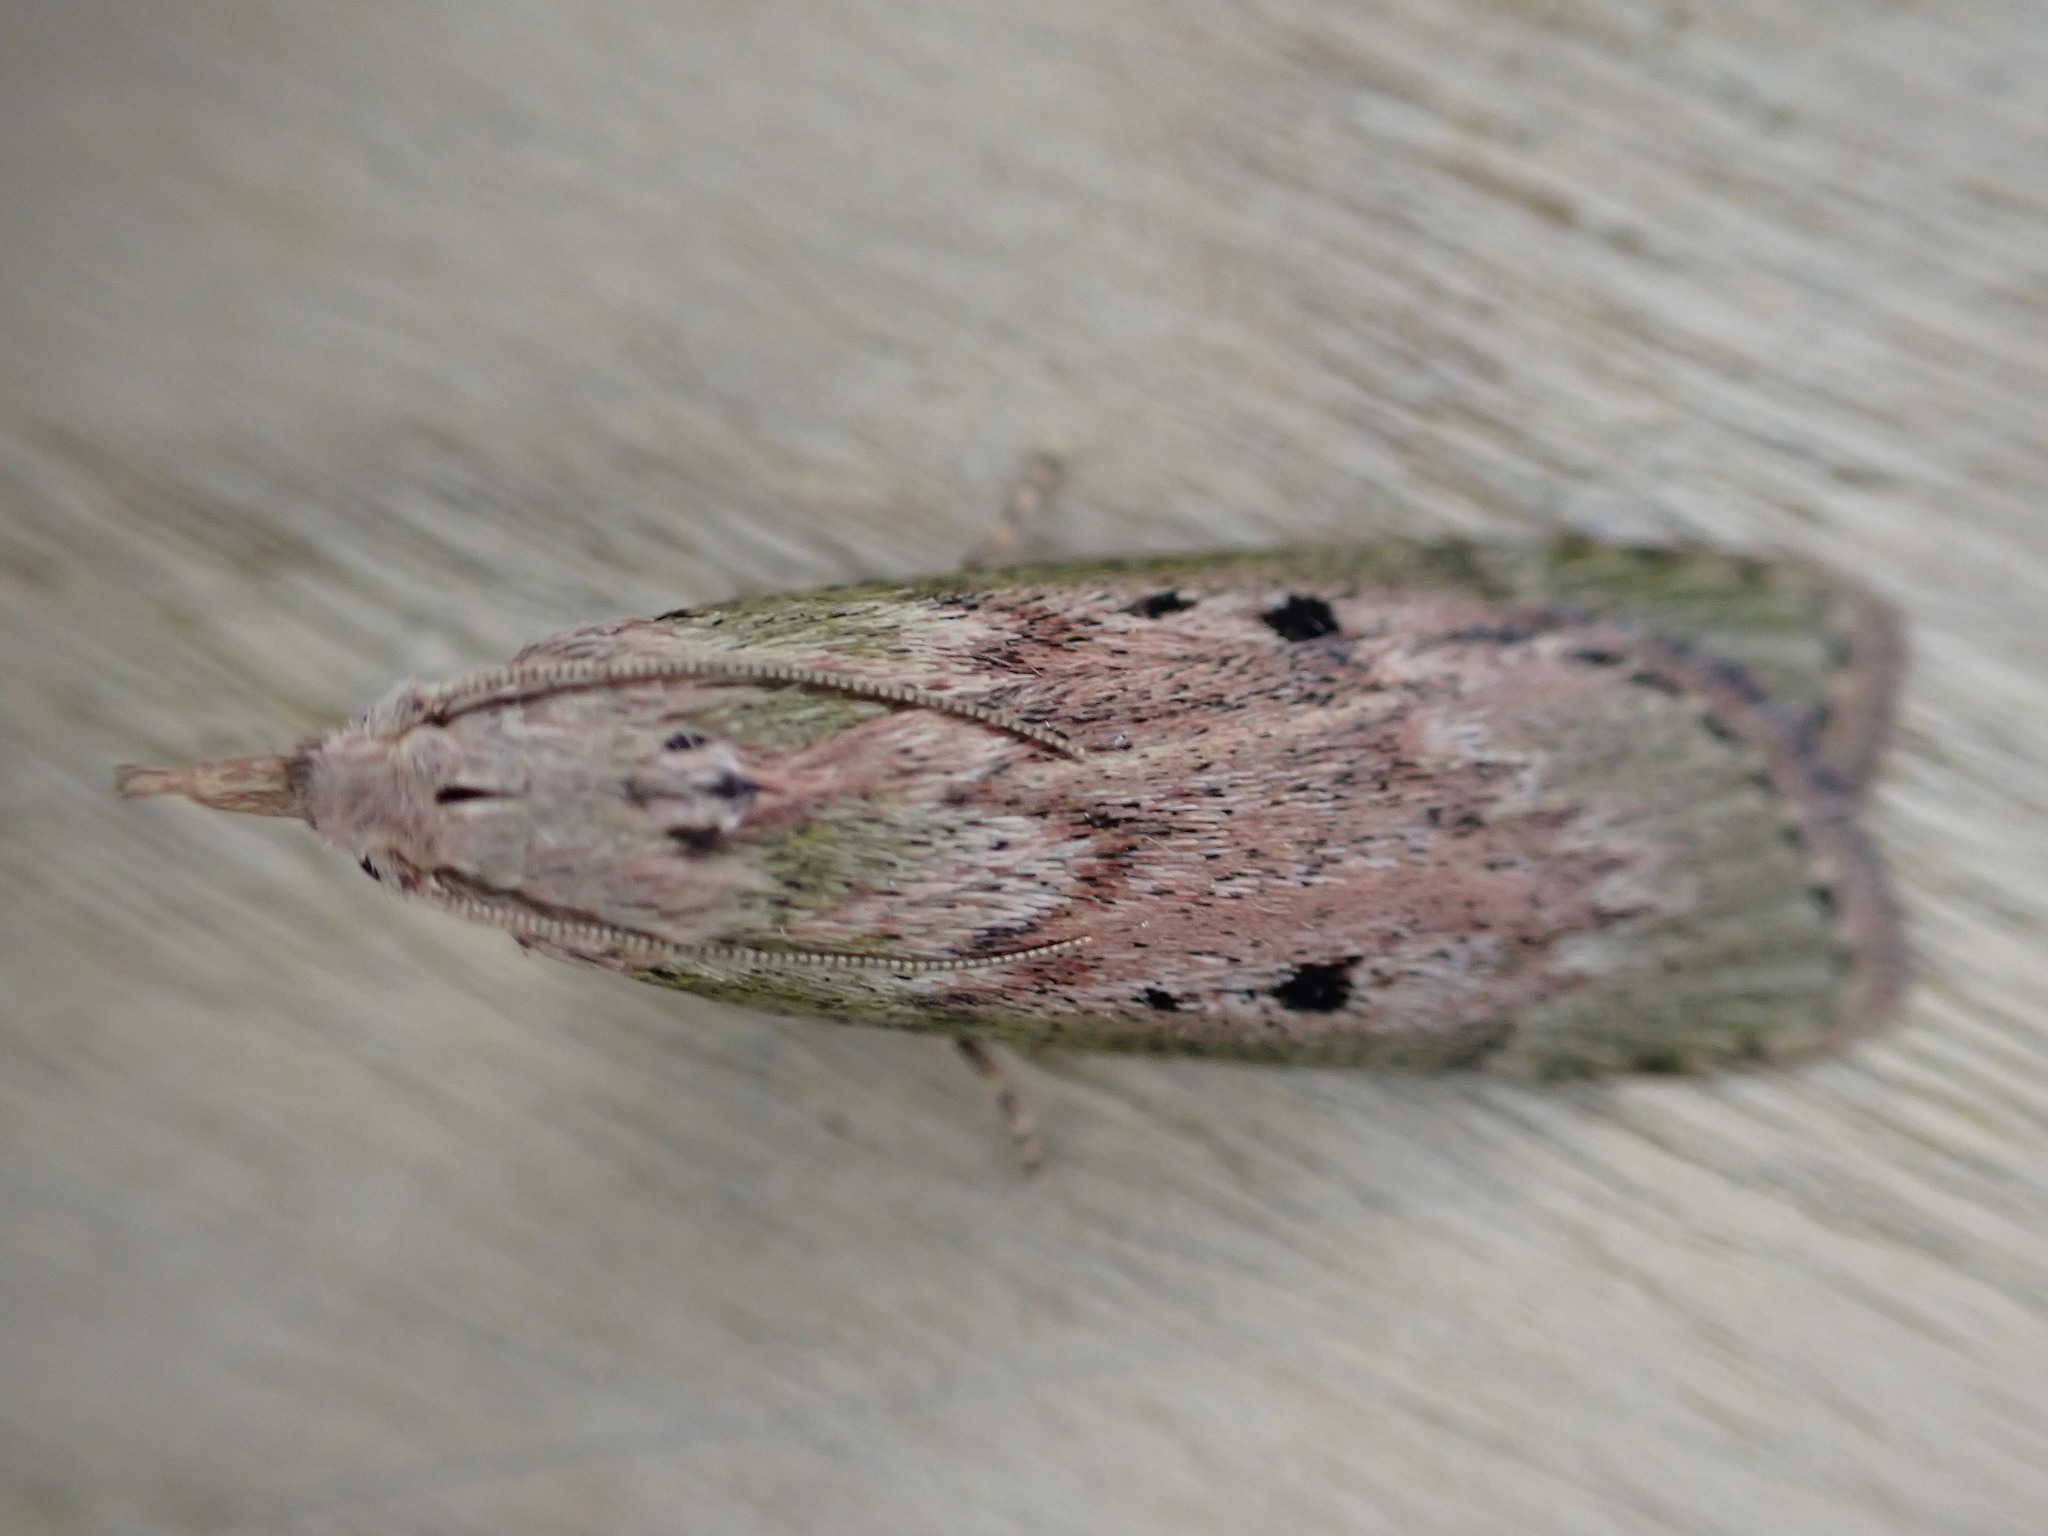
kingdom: Animalia
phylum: Arthropoda
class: Insecta
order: Lepidoptera
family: Pyralidae
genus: Aphomia
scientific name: Aphomia sociella
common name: Bee moth
